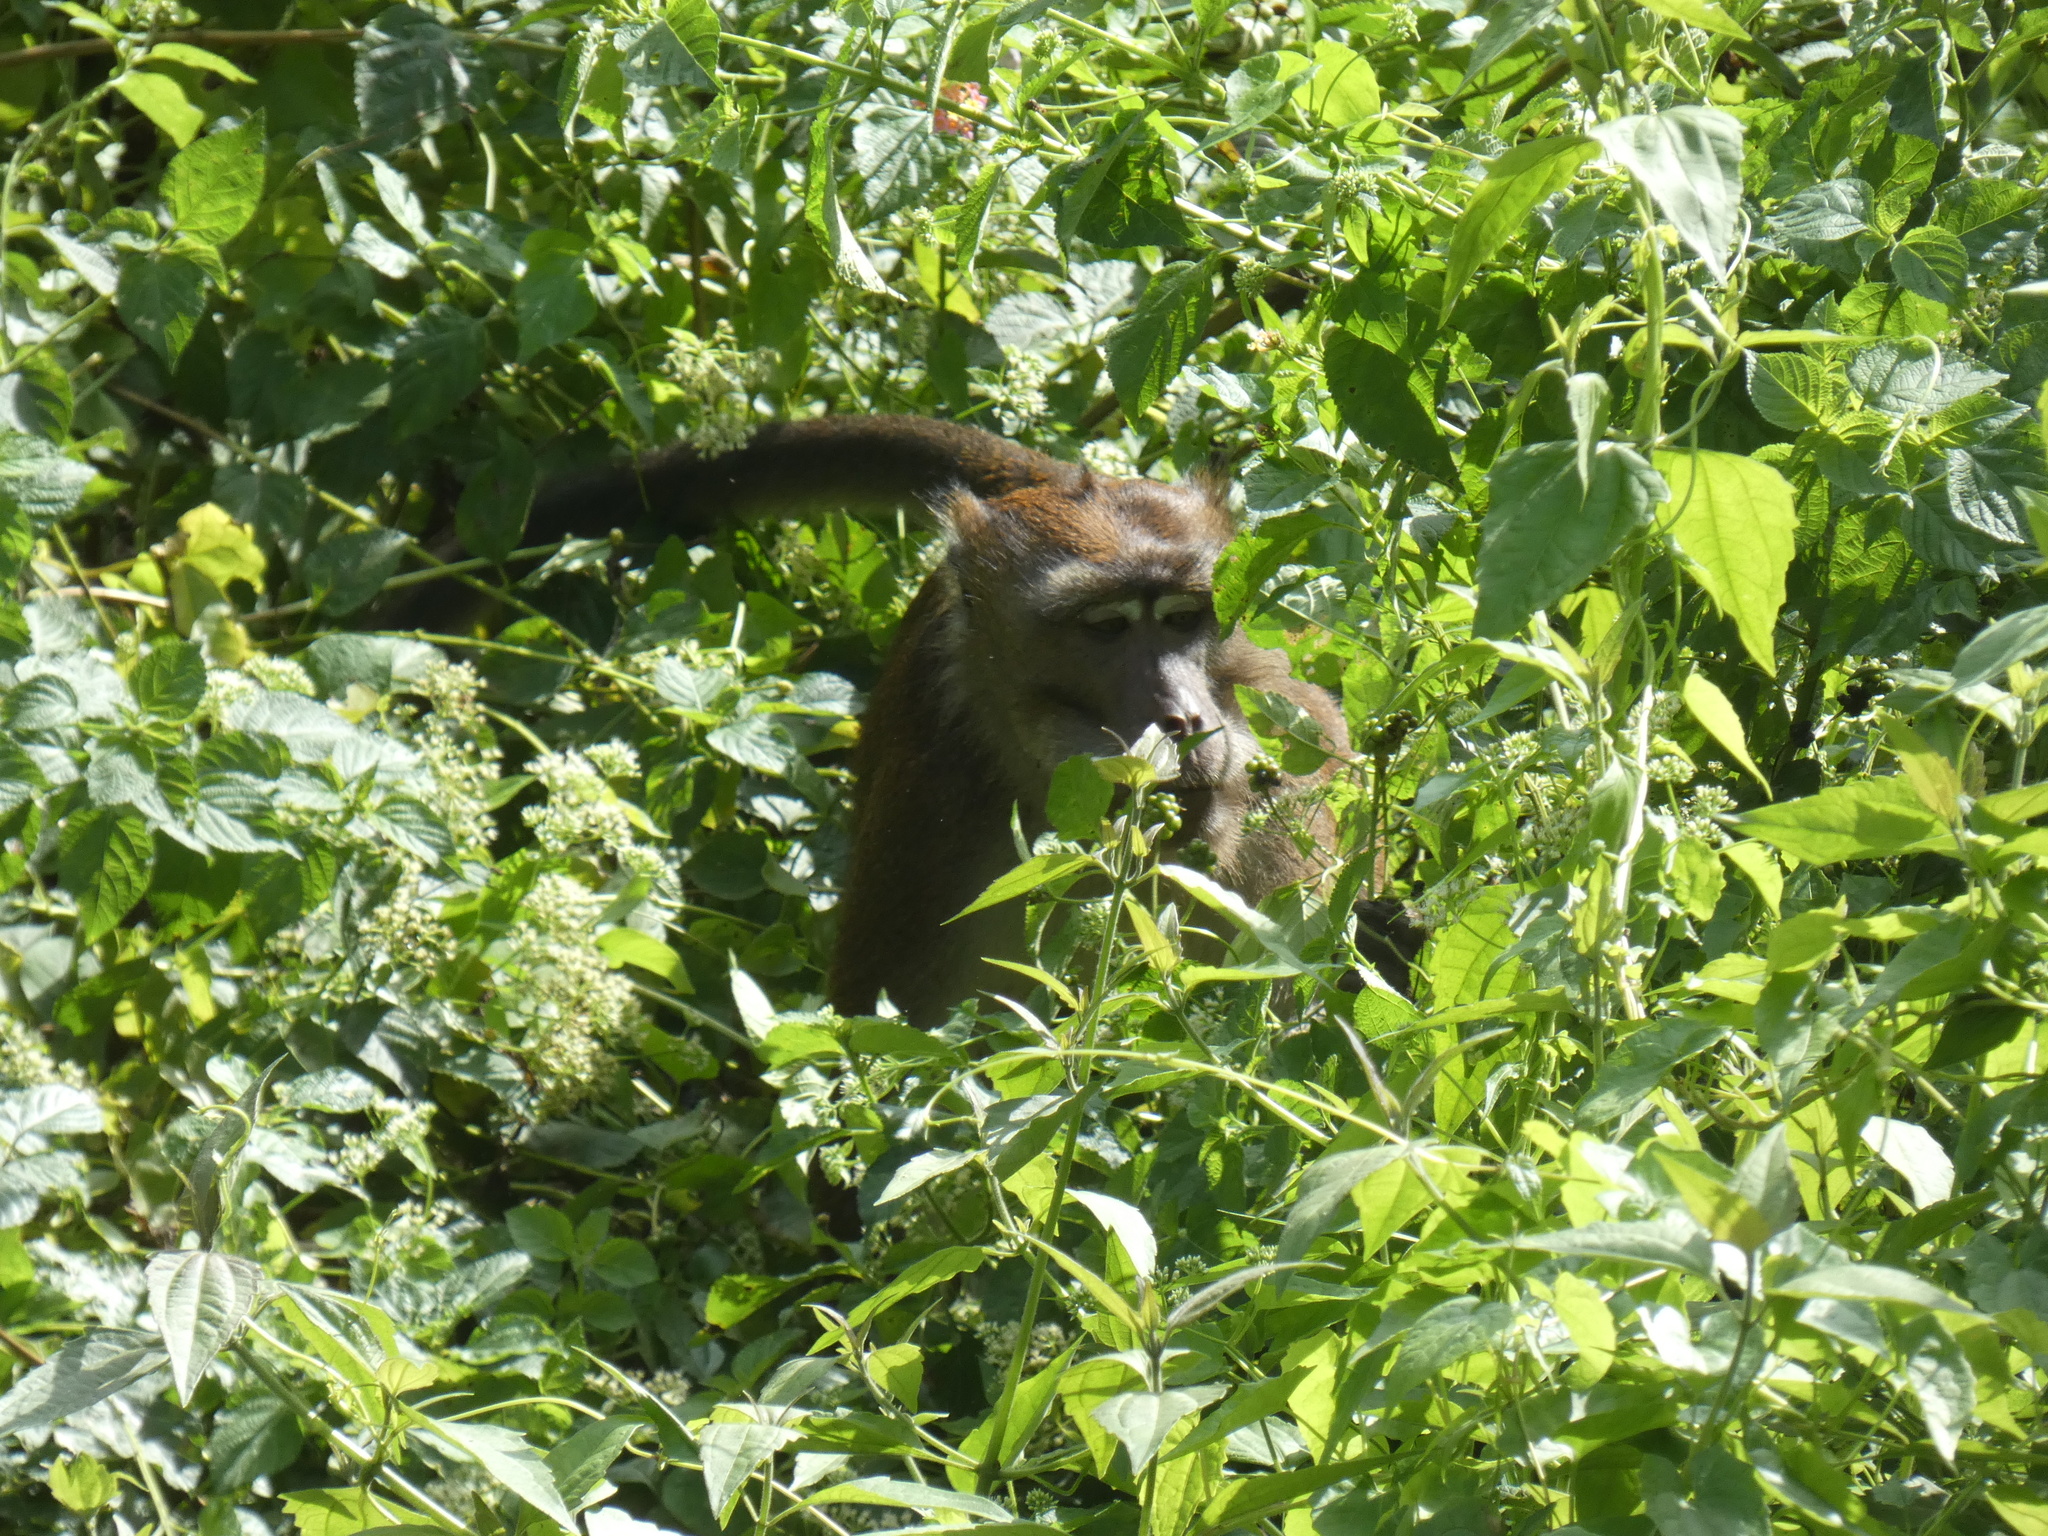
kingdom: Animalia
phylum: Chordata
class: Mammalia
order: Primates
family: Cercopithecidae
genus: Macaca
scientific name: Macaca fascicularis
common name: Crab-eating macaque
